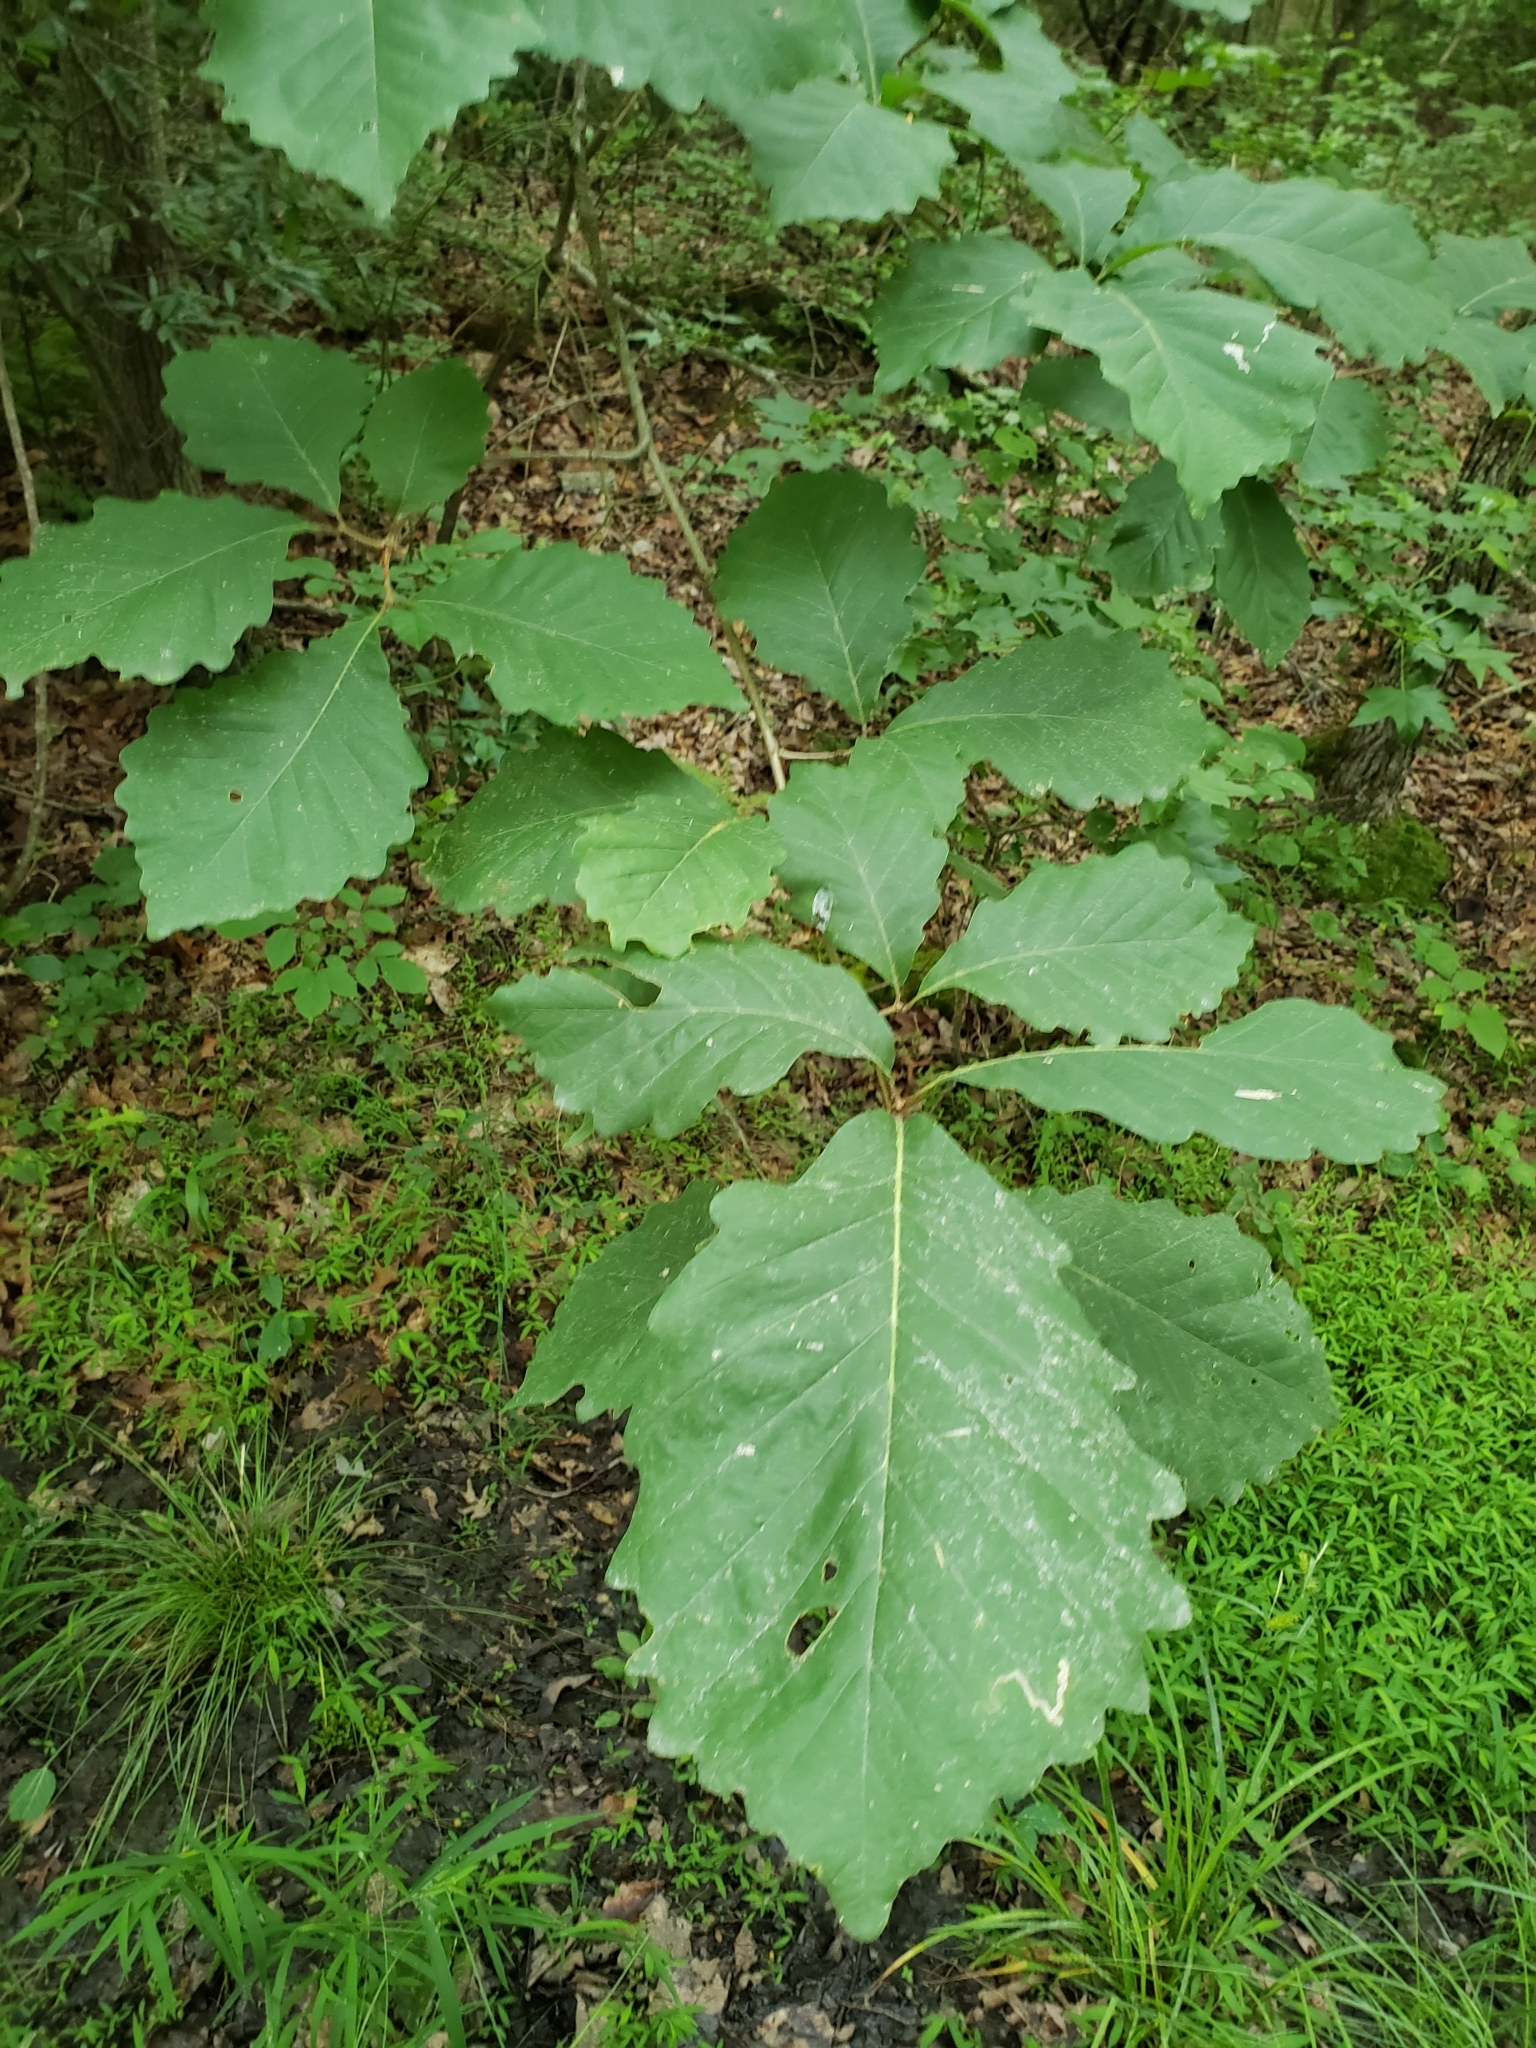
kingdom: Plantae
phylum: Tracheophyta
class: Magnoliopsida
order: Fagales
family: Fagaceae
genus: Quercus
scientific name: Quercus montana
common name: Chestnut oak
